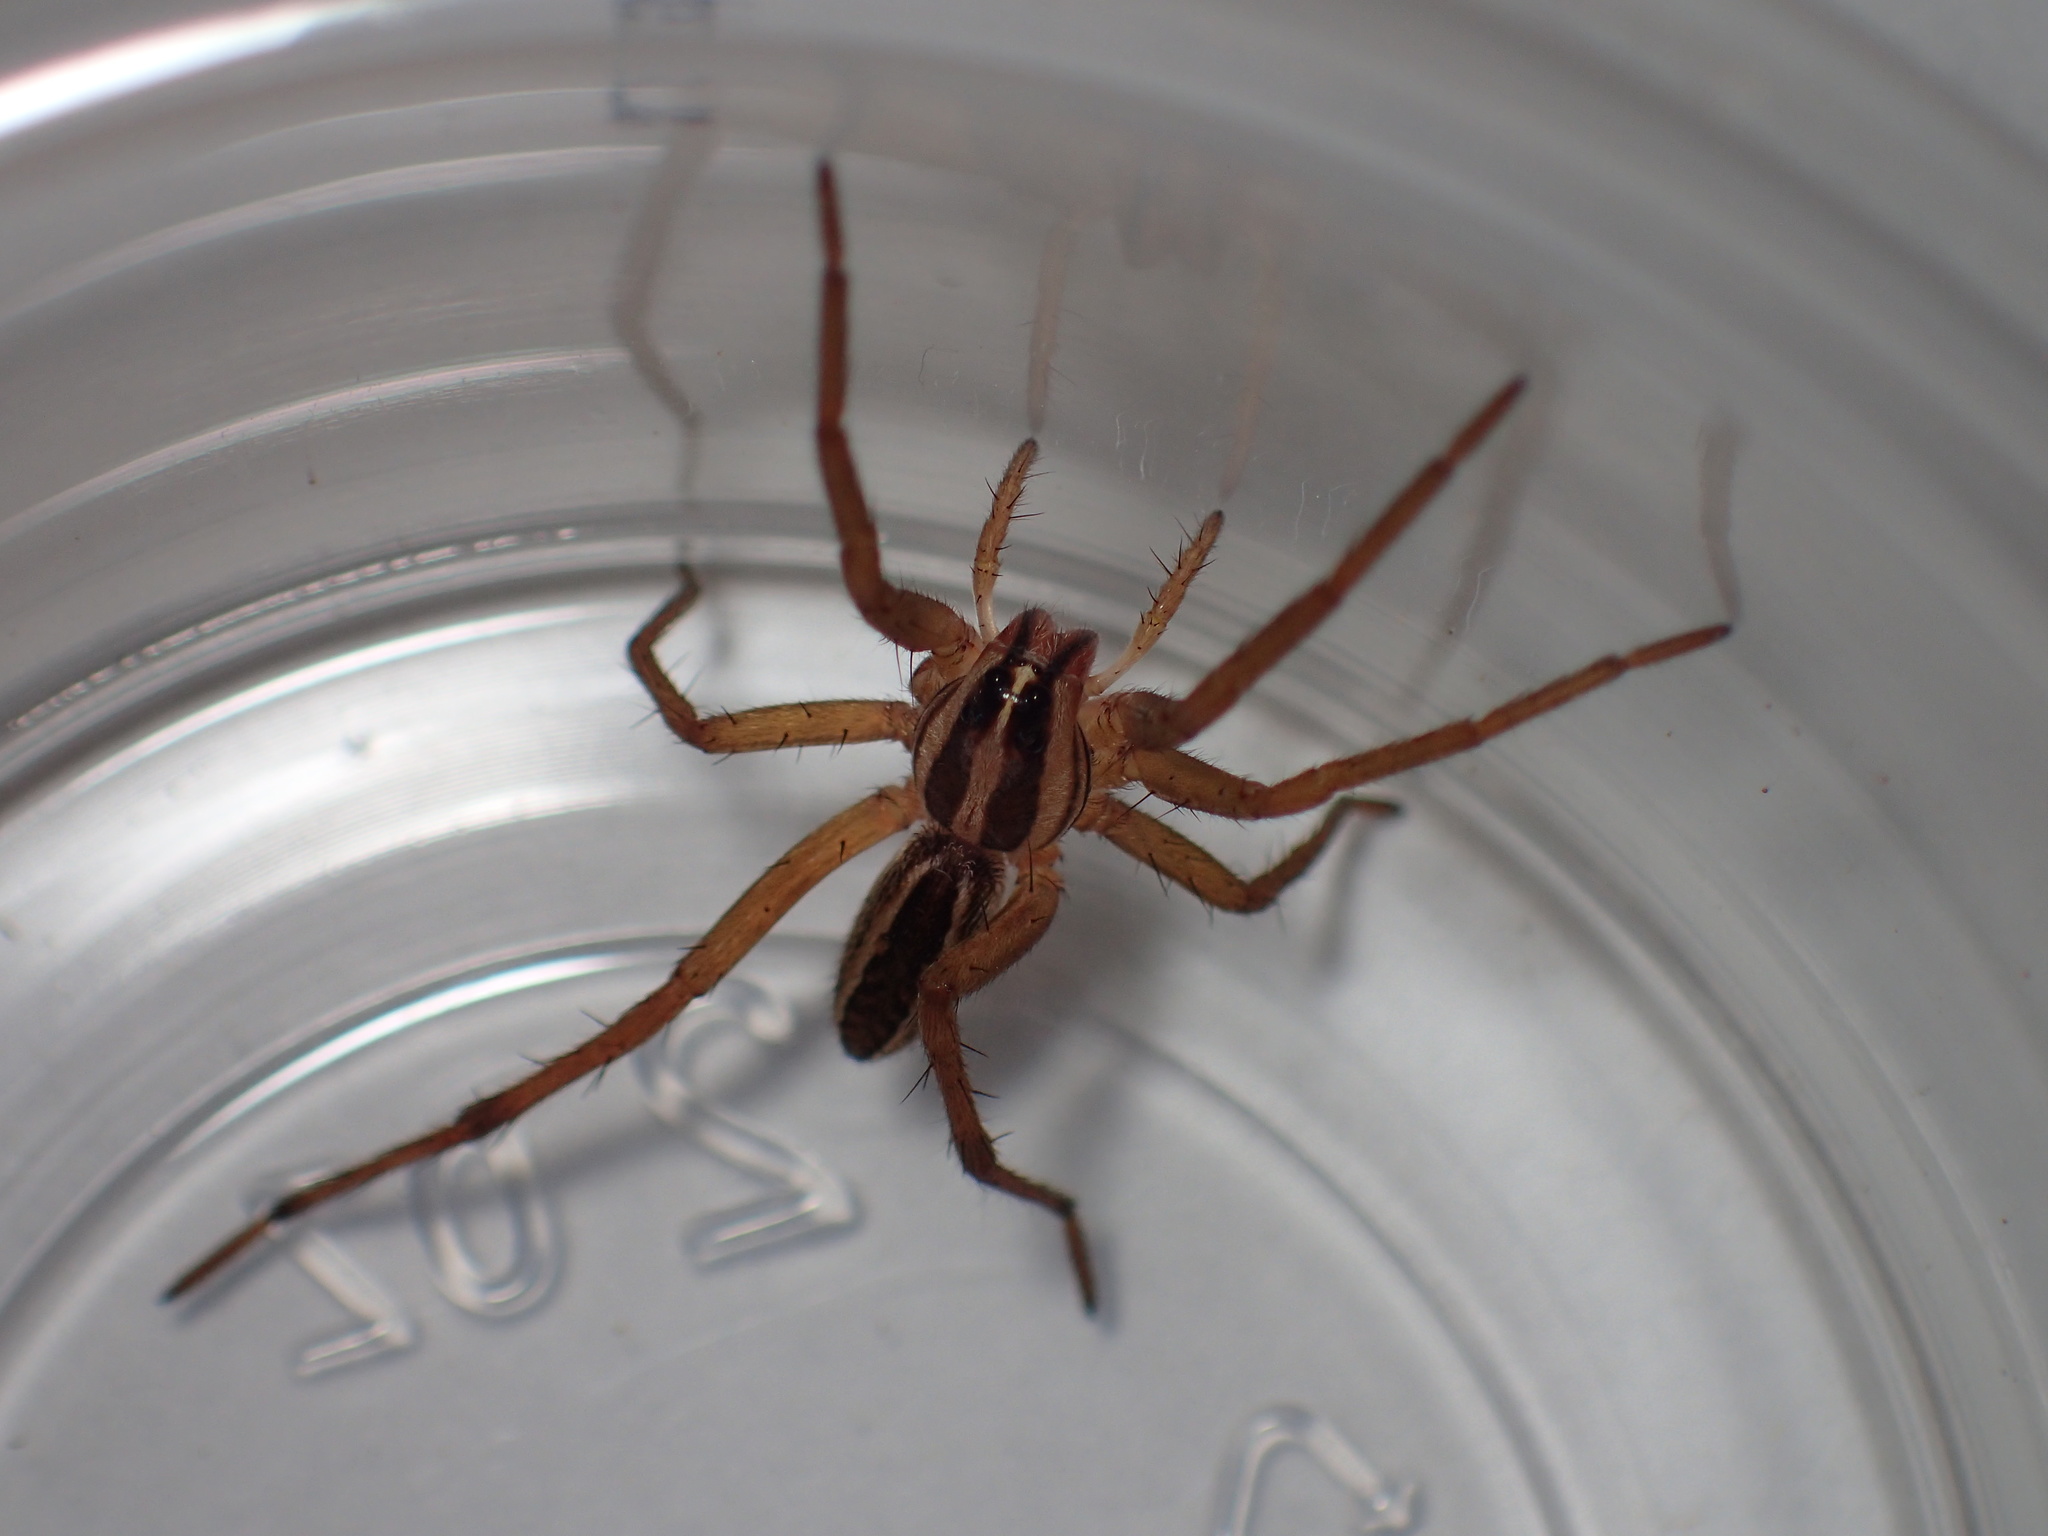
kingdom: Animalia
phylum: Arthropoda
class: Arachnida
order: Araneae
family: Lycosidae
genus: Rabidosa
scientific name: Rabidosa rabida
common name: Rabid wolf spider
